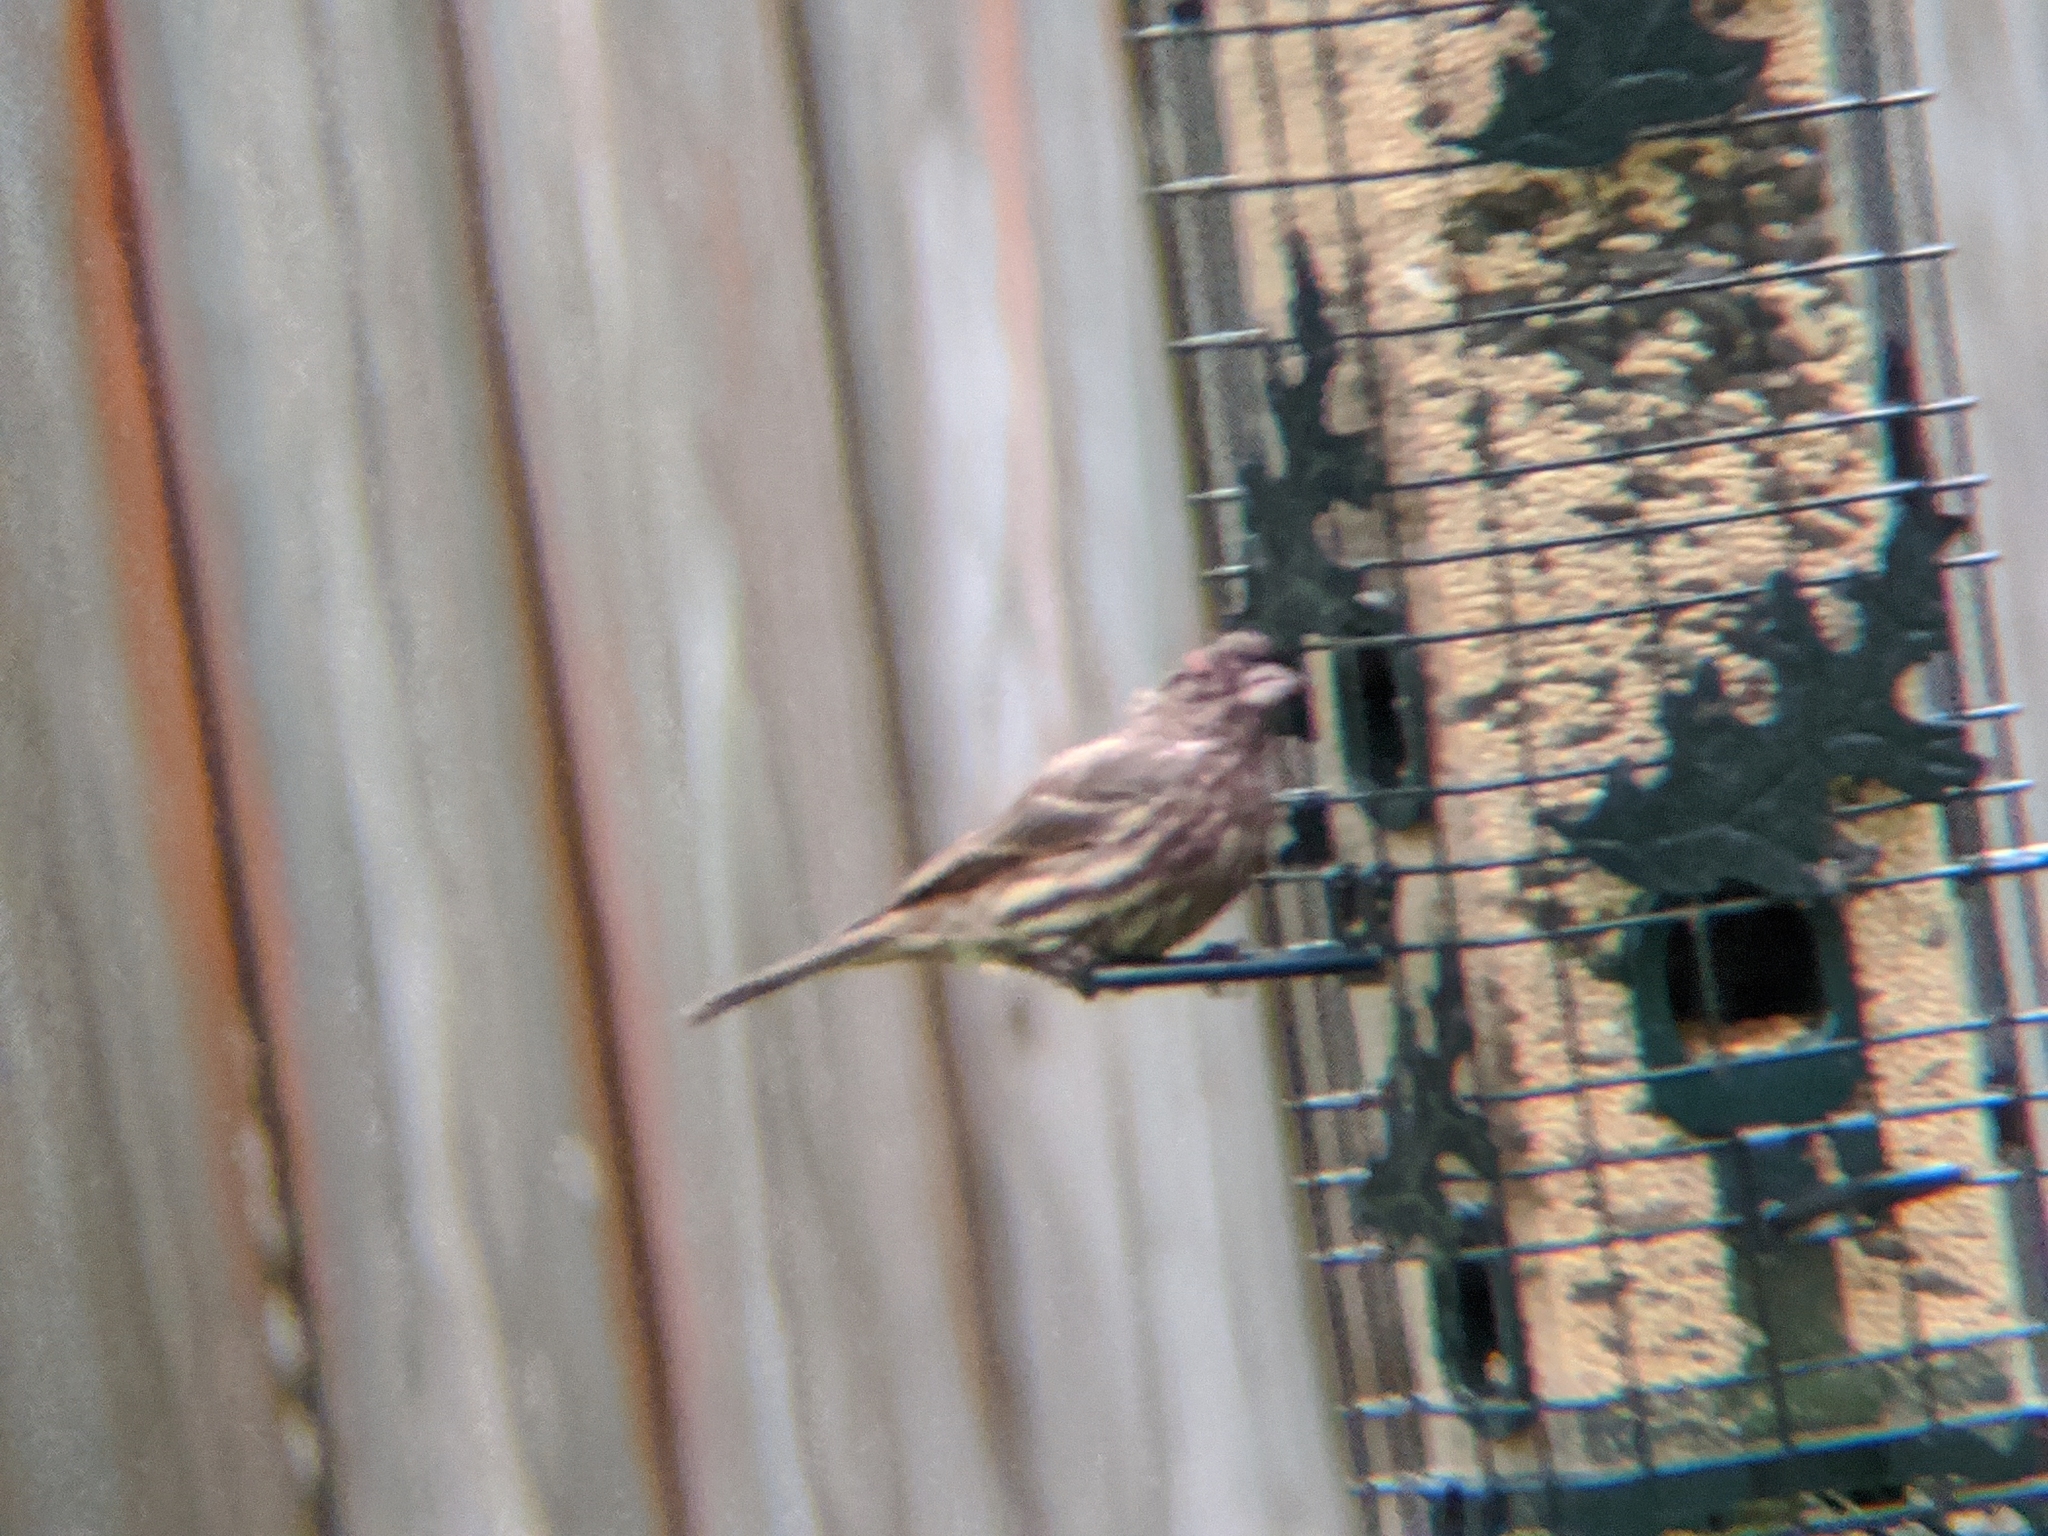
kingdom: Bacteria
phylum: Firmicutes
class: Bacilli
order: Mycoplasmatales
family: Mycoplasmataceae
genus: Mycoplasma
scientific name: Mycoplasma gallisepticum
